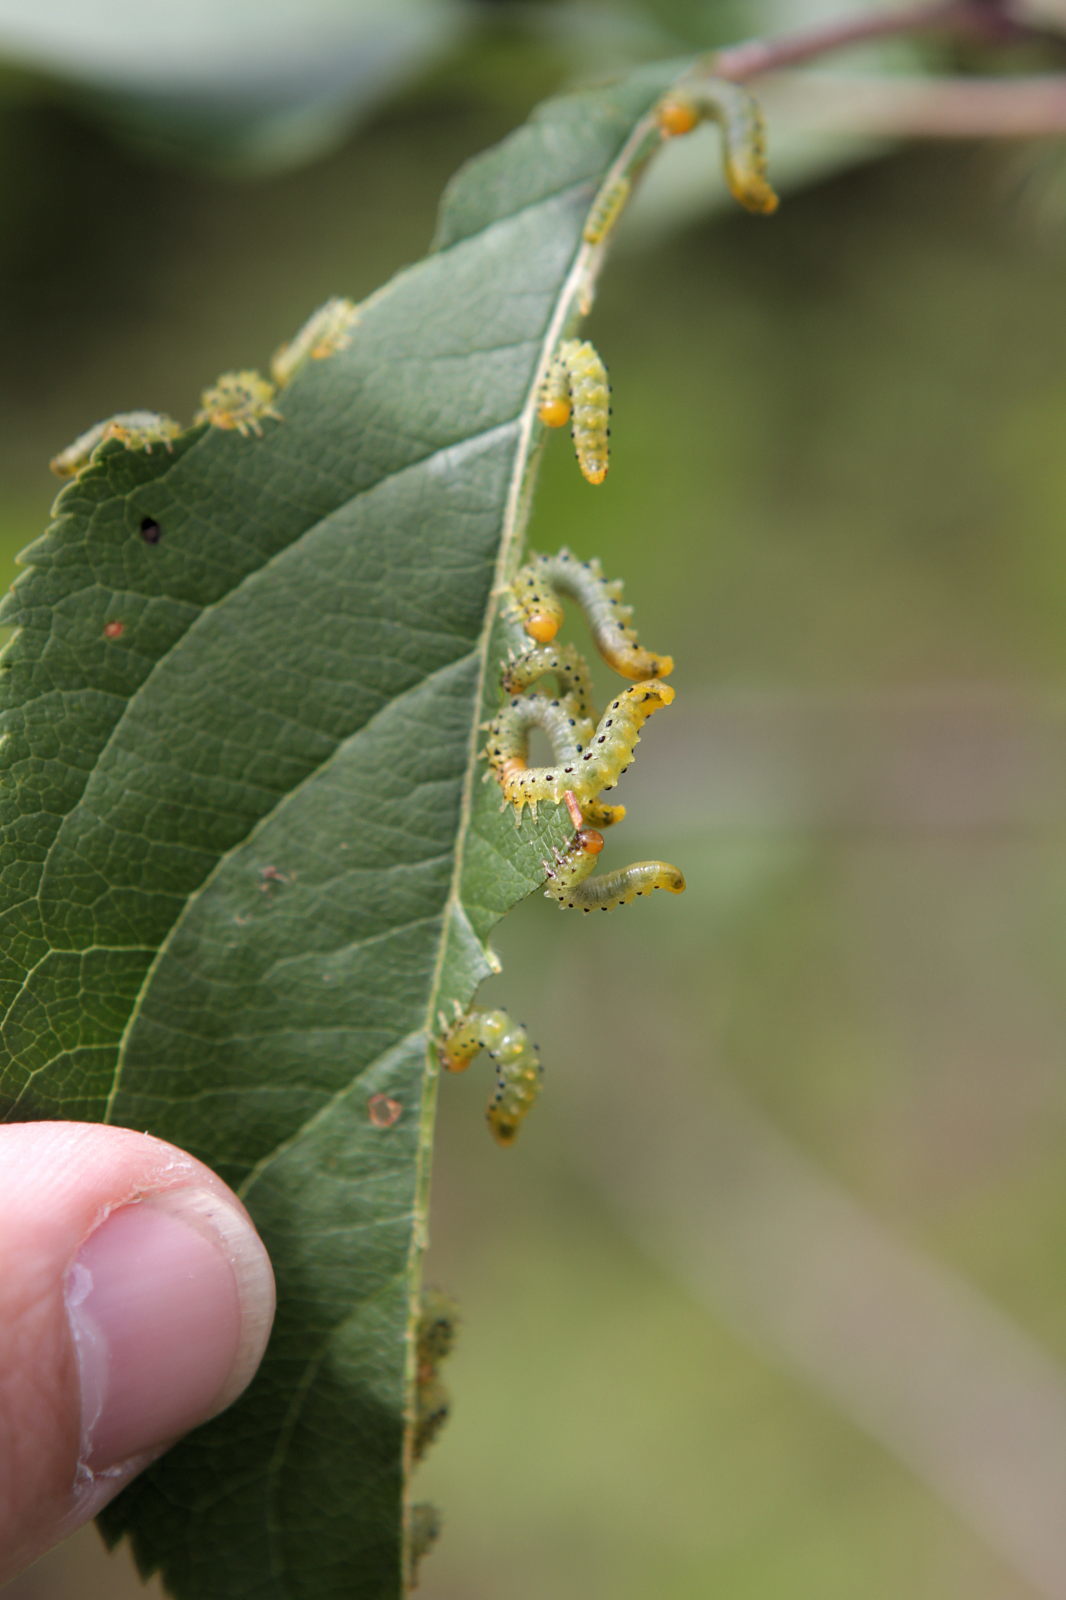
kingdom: Animalia
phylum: Arthropoda
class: Insecta
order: Hymenoptera
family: Tenthredinidae
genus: Pristiphora
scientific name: Pristiphora maesta
